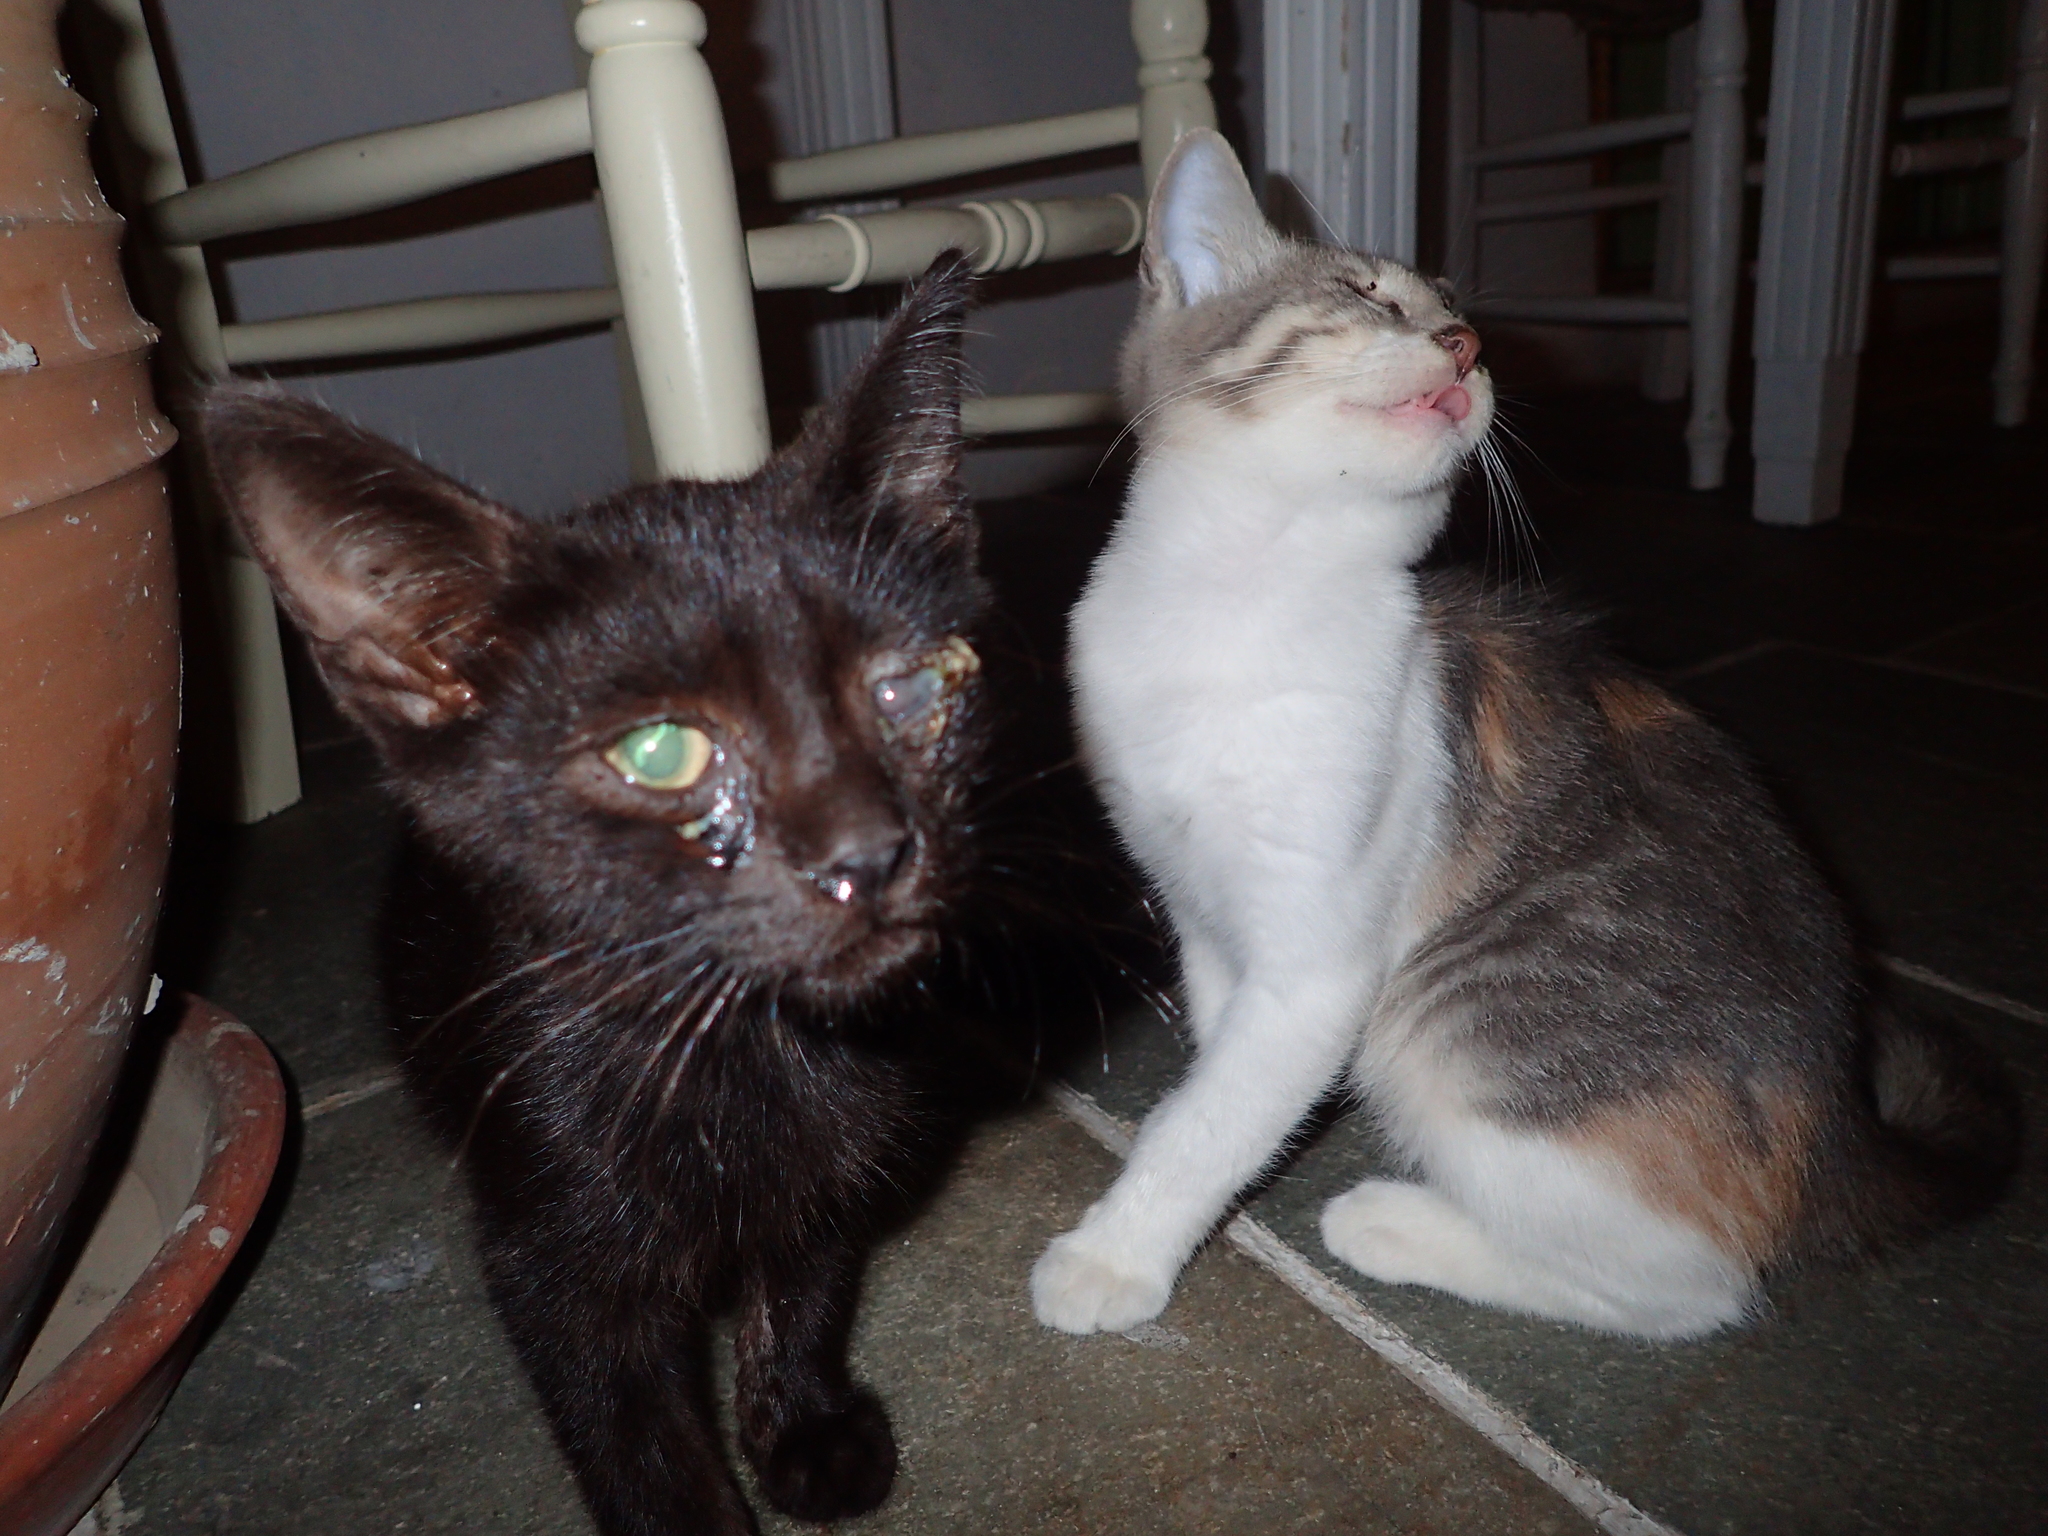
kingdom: Animalia
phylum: Chordata
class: Mammalia
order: Carnivora
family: Felidae
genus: Felis
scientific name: Felis catus
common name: Domestic cat
